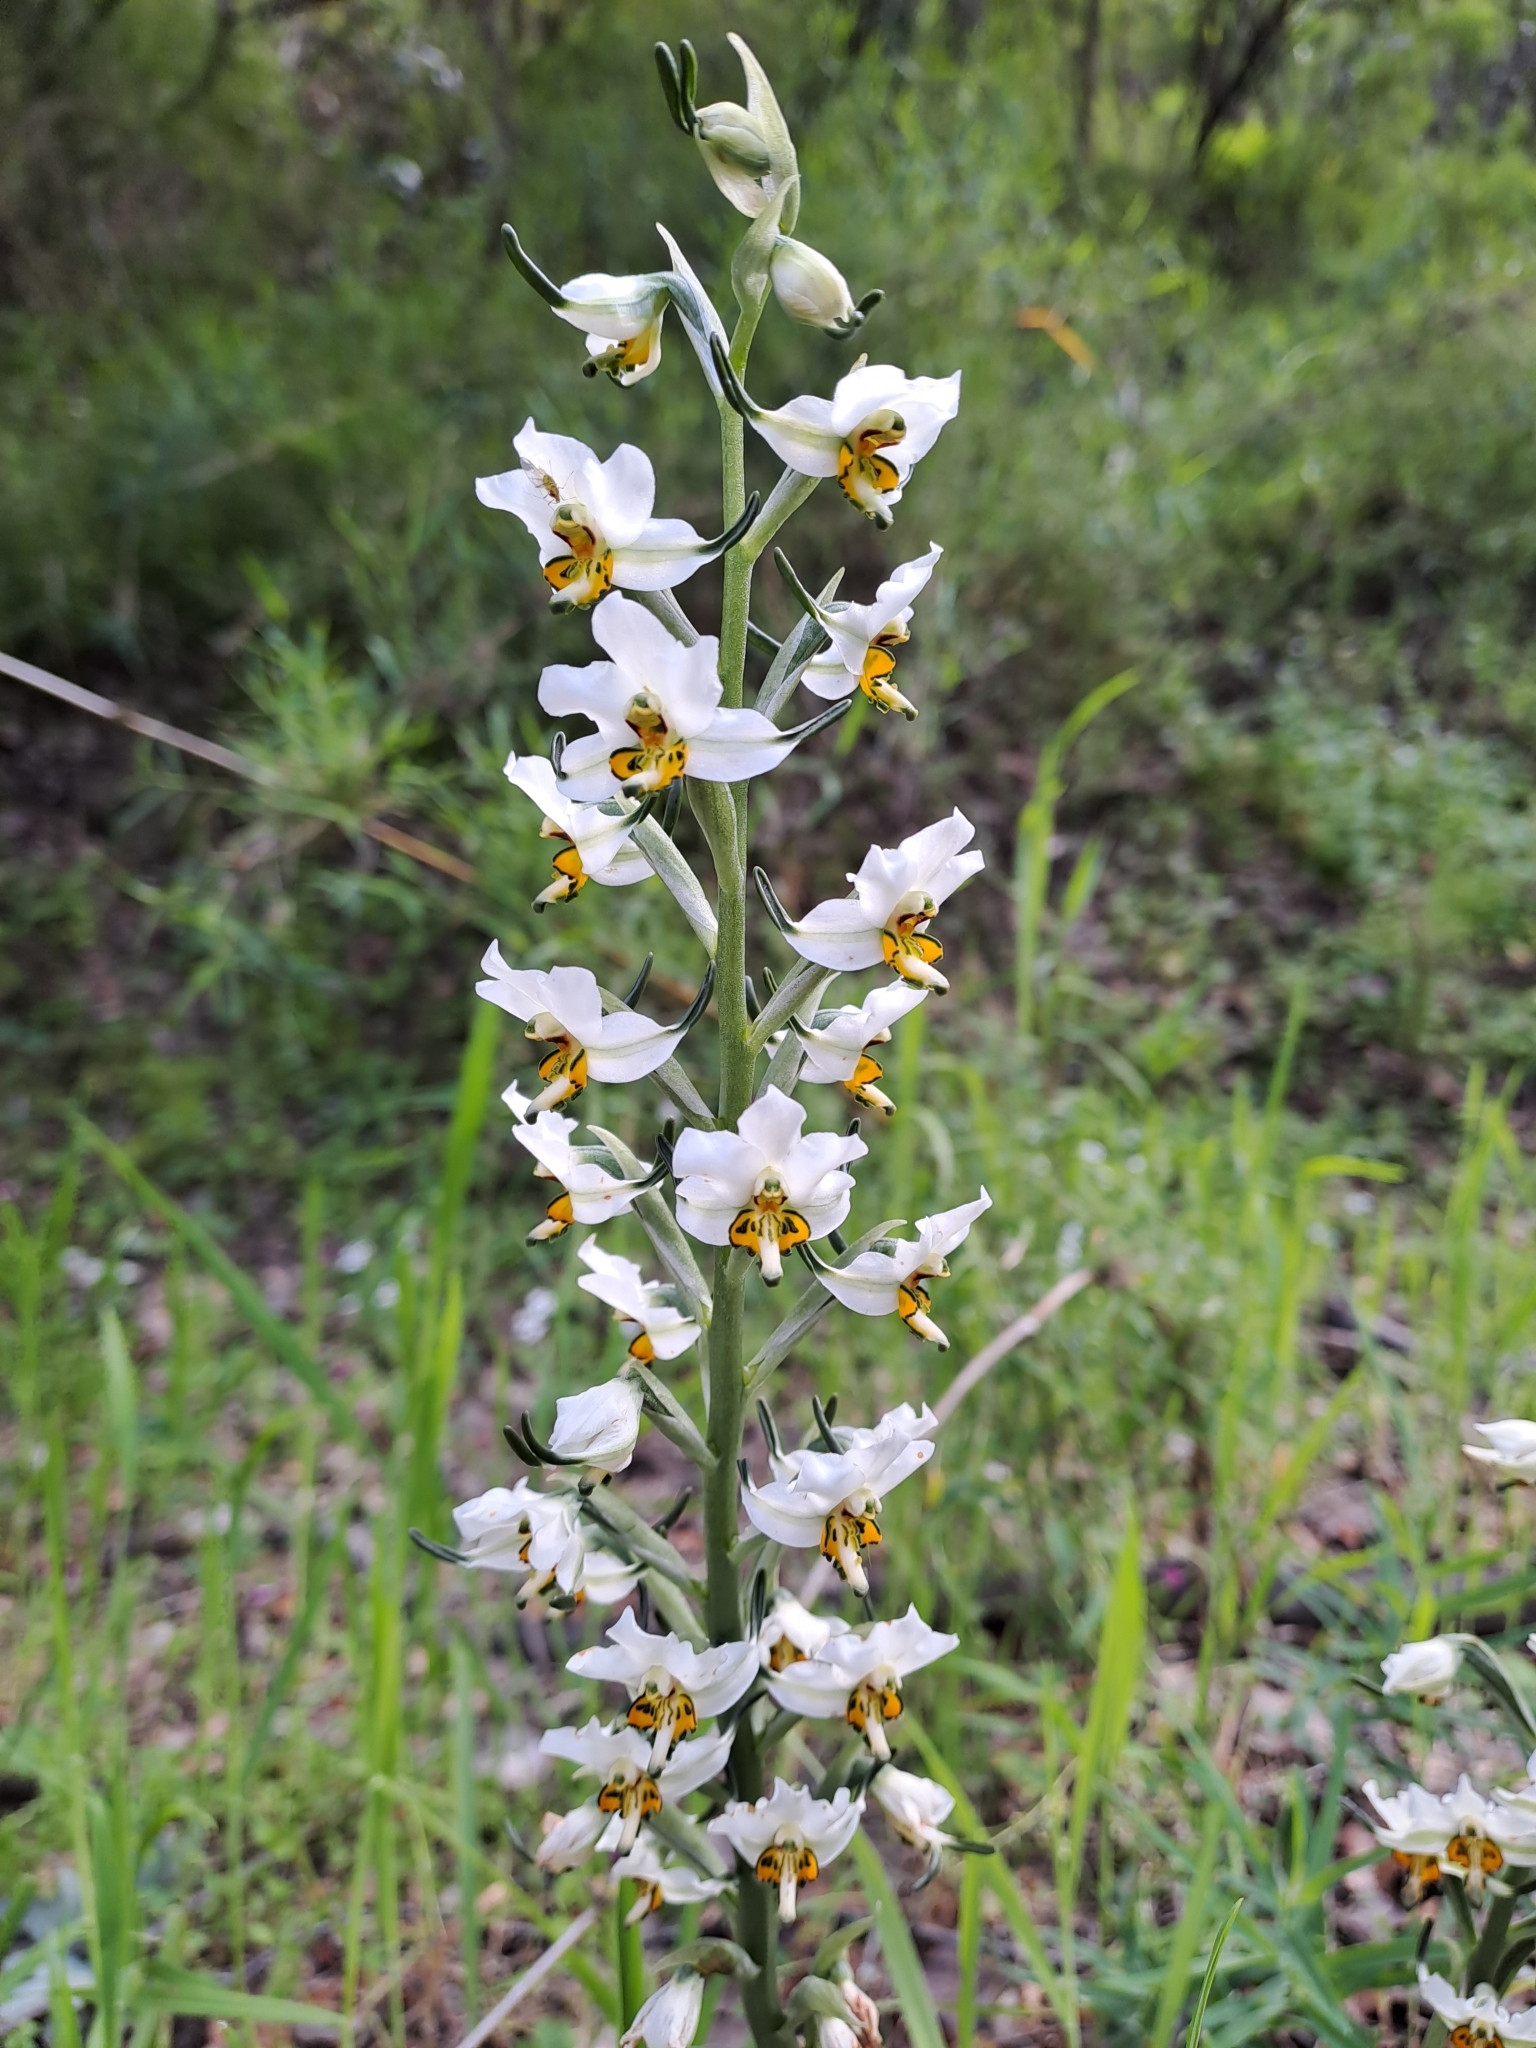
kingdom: Plantae
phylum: Tracheophyta
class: Liliopsida
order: Asparagales
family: Orchidaceae
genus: Gavilea
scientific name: Gavilea longibracteata
